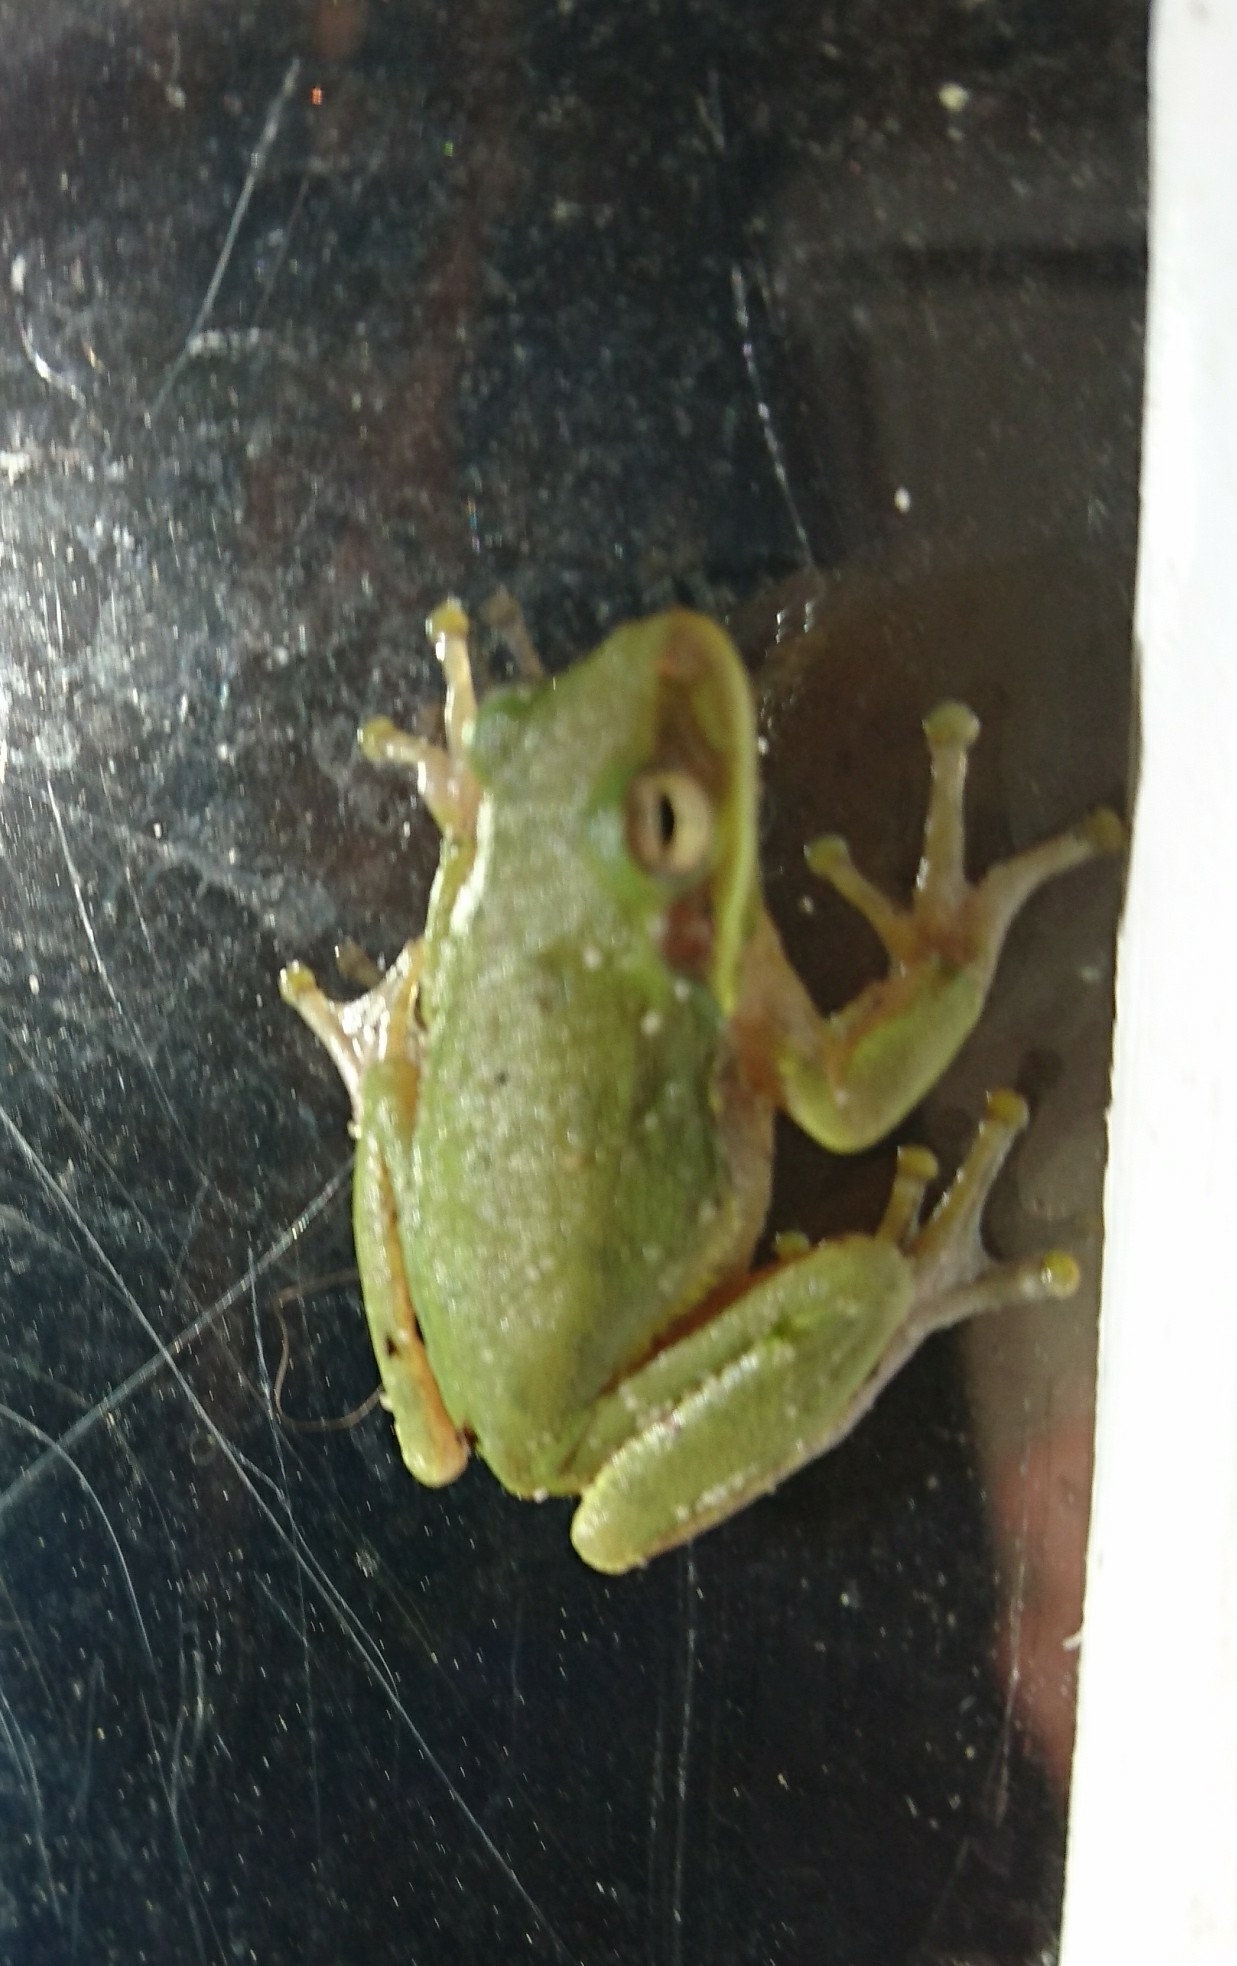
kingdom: Animalia
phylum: Chordata
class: Amphibia
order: Anura
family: Hylidae
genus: Dryophytes
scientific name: Dryophytes squirellus
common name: Squirrel treefrog
